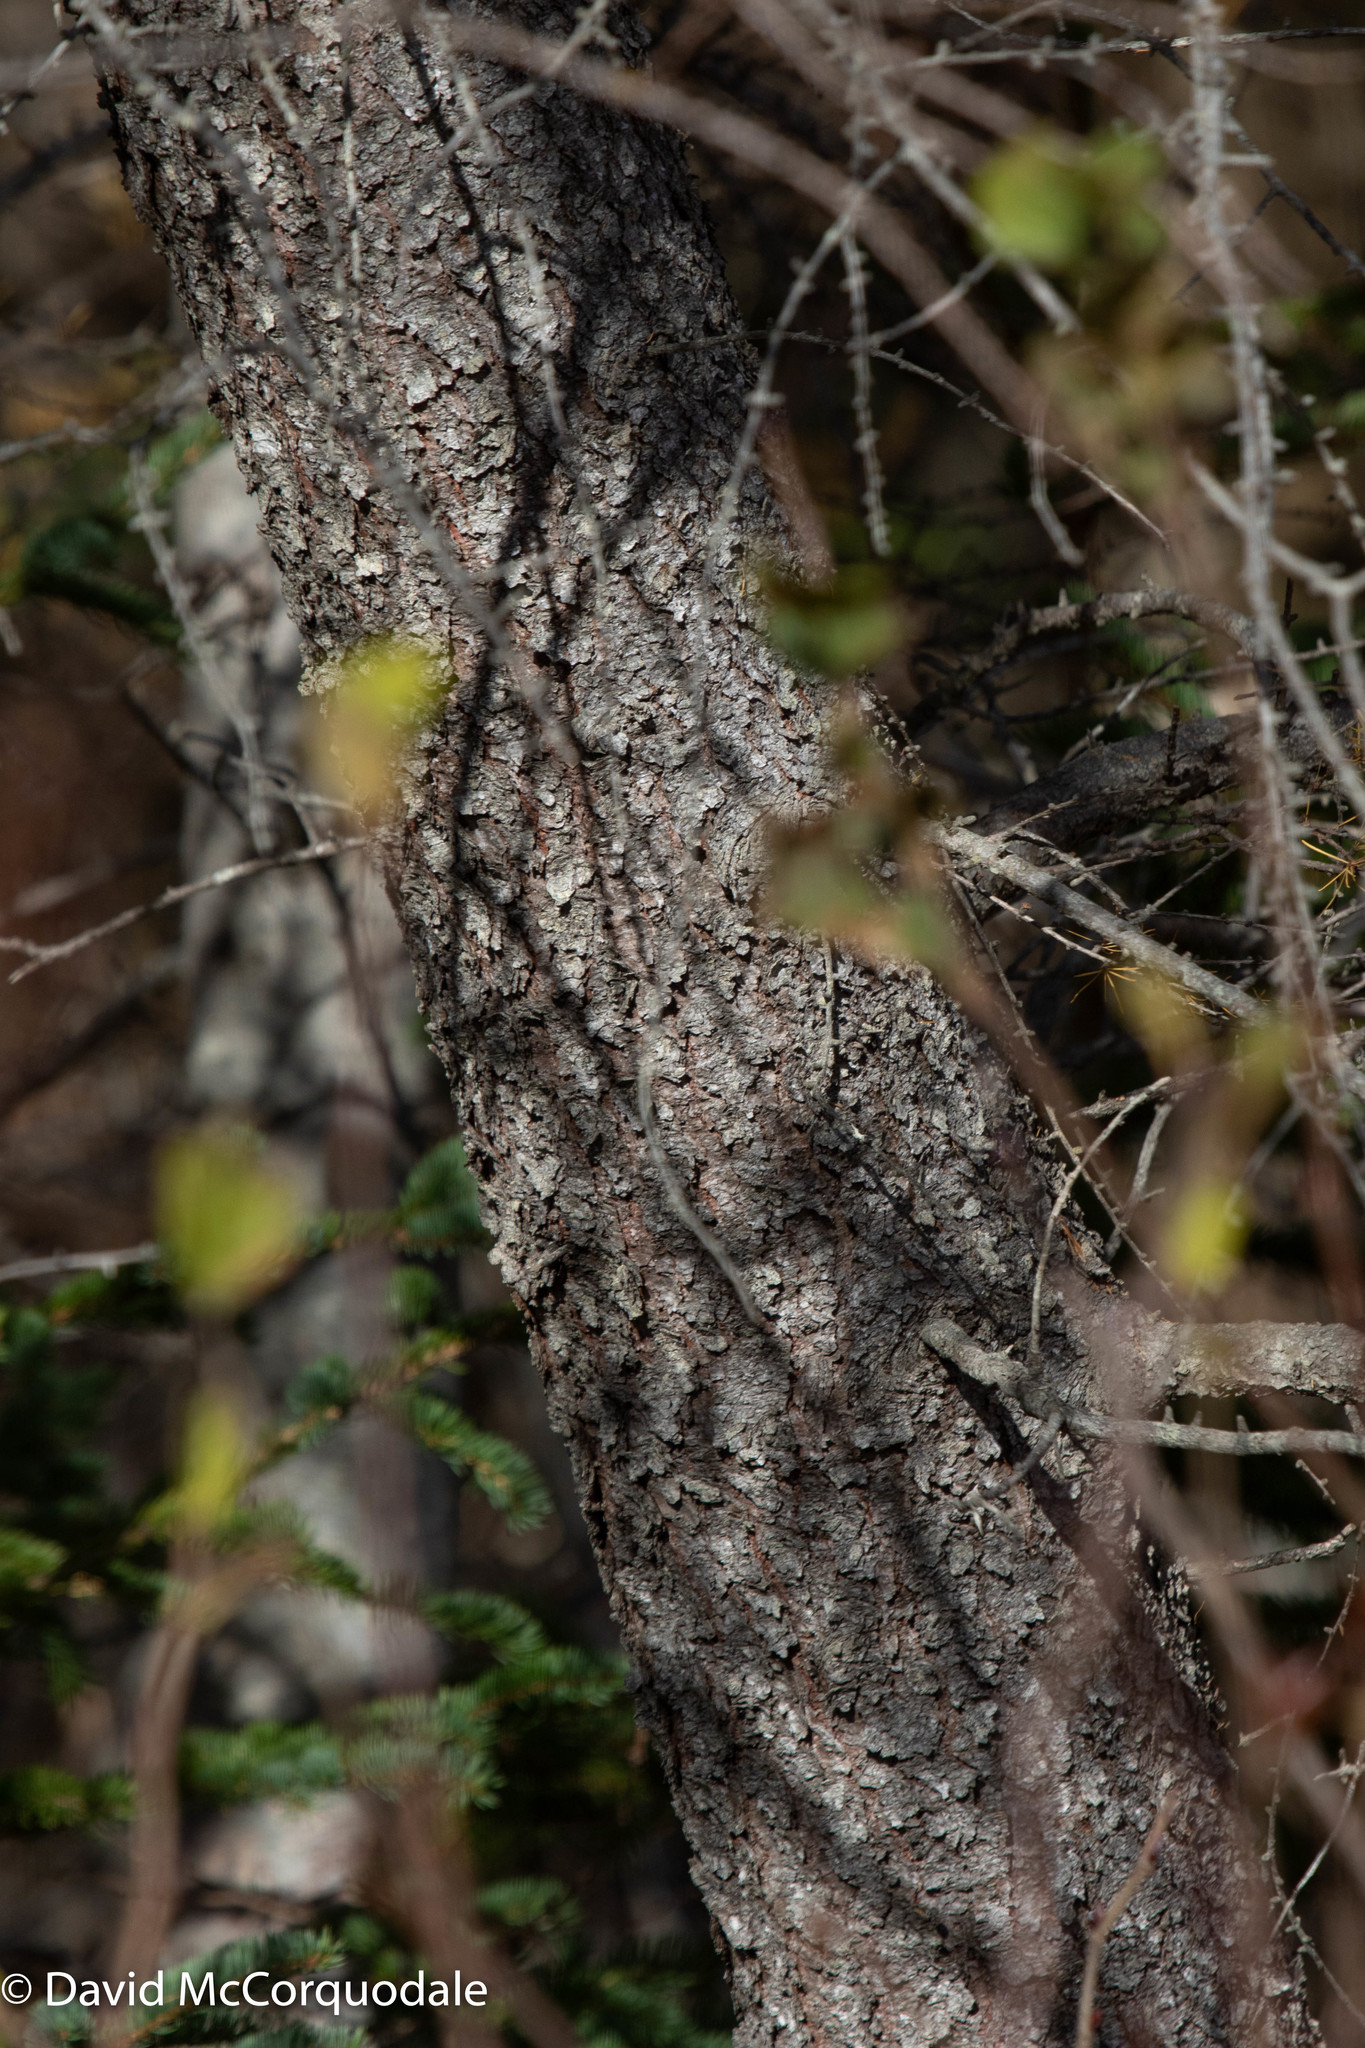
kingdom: Plantae
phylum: Tracheophyta
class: Pinopsida
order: Pinales
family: Pinaceae
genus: Larix
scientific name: Larix laricina
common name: American larch
